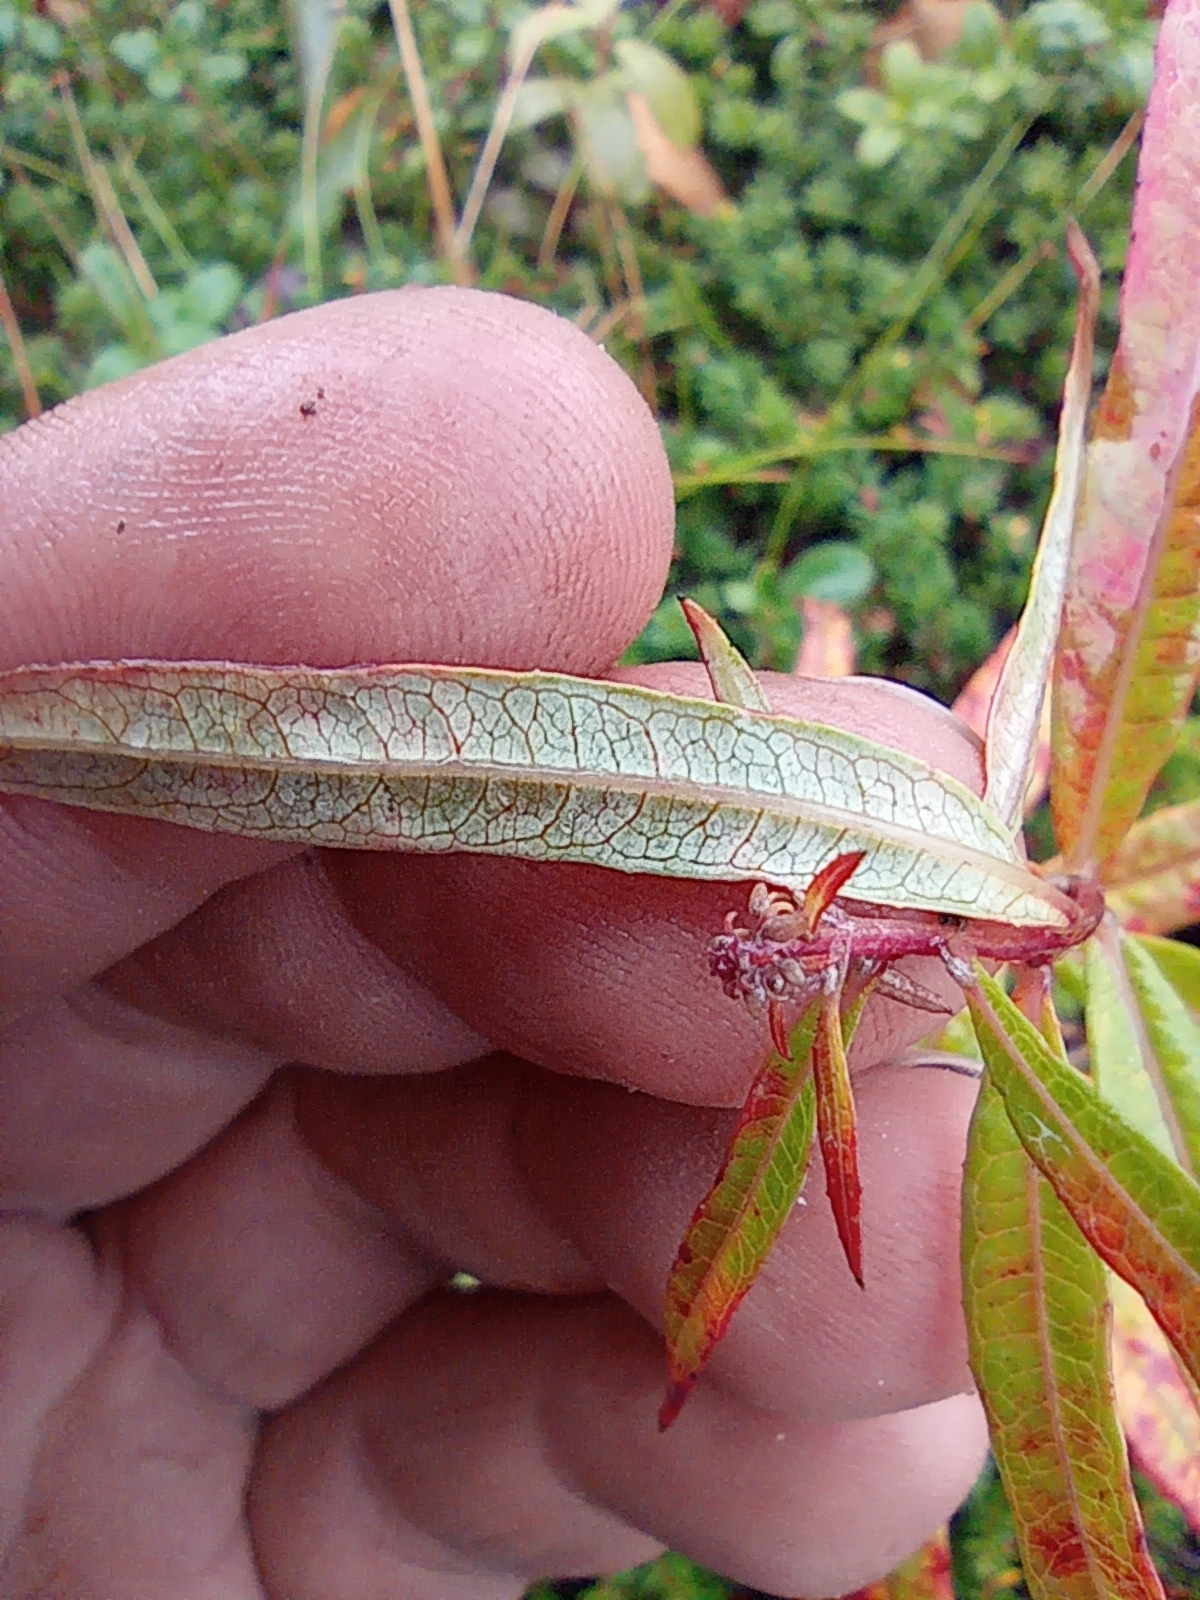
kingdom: Plantae
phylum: Tracheophyta
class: Magnoliopsida
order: Myrtales
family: Onagraceae
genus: Chamaenerion
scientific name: Chamaenerion angustifolium
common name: Fireweed
